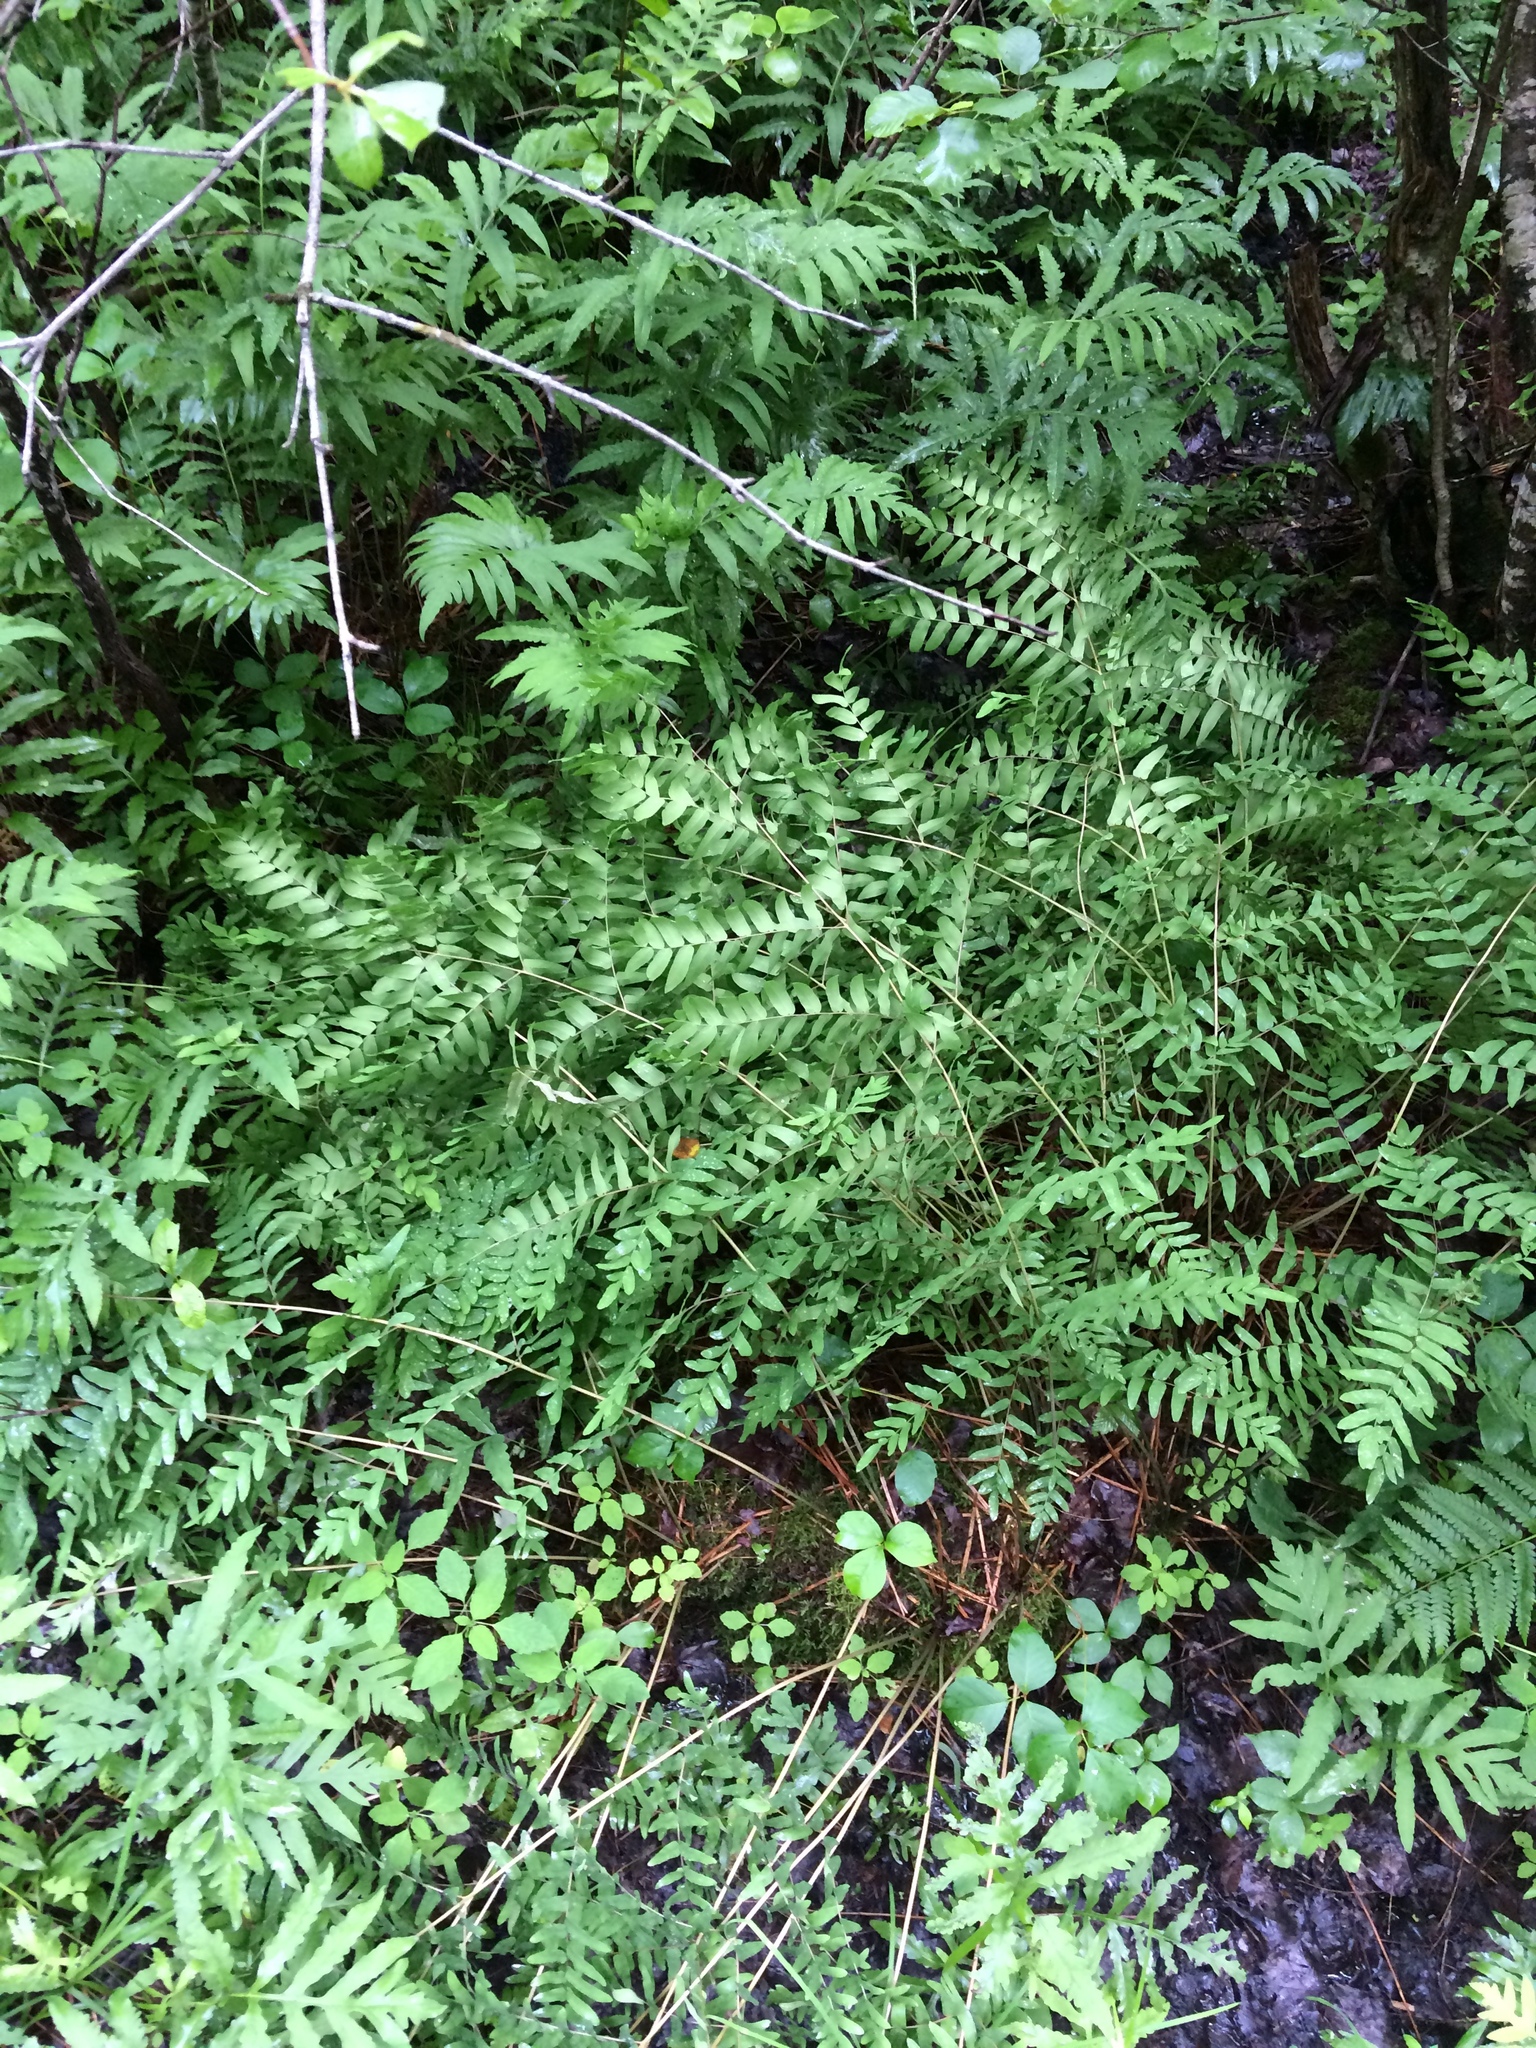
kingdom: Plantae
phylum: Tracheophyta
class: Polypodiopsida
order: Osmundales
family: Osmundaceae
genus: Osmunda
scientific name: Osmunda spectabilis
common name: American royal fern
